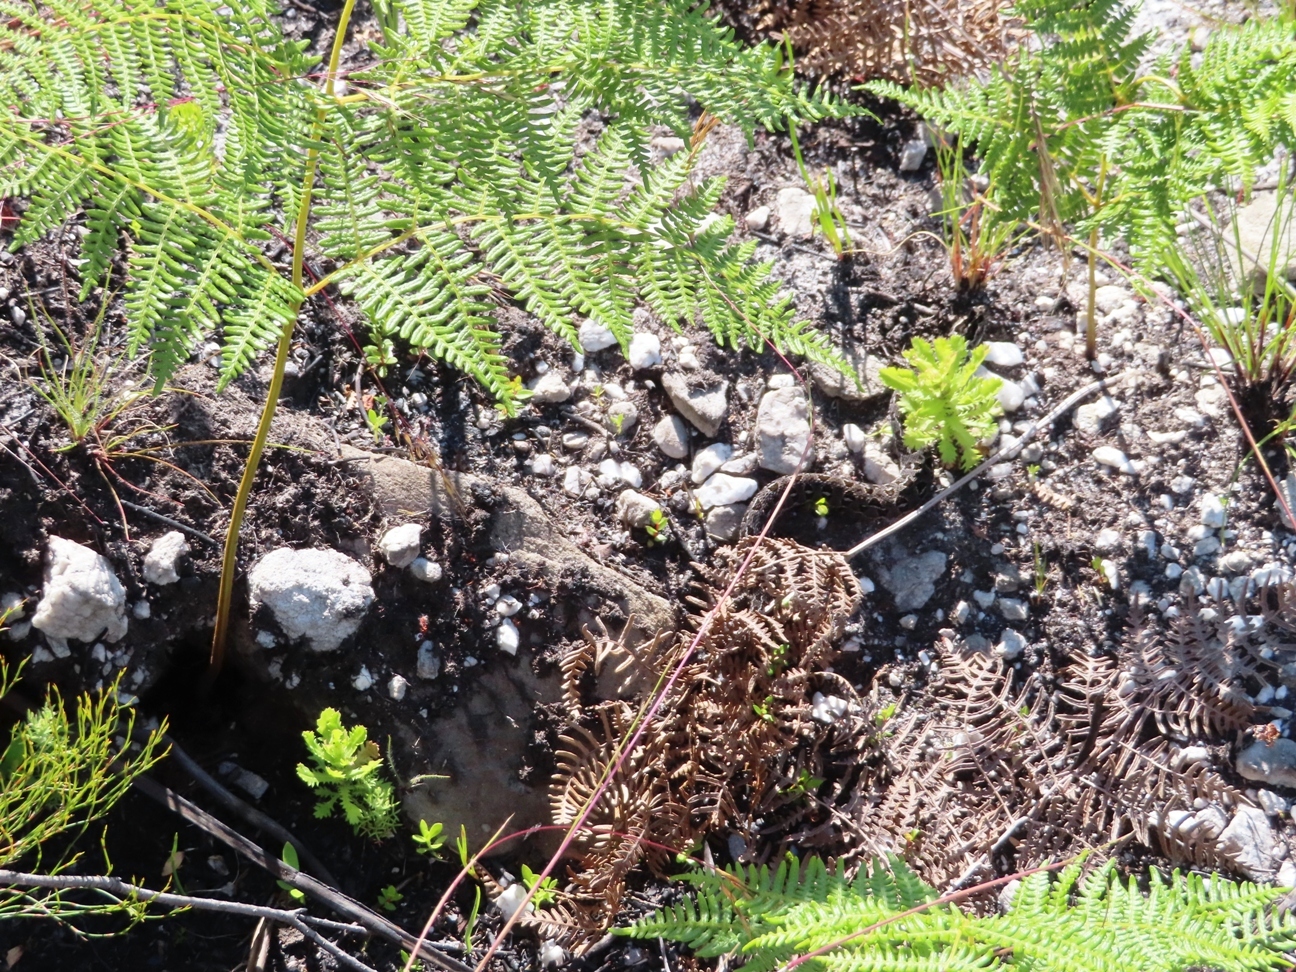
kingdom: Animalia
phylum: Chordata
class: Squamata
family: Viperidae
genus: Bitis
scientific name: Bitis atropos
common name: Mountain adder
